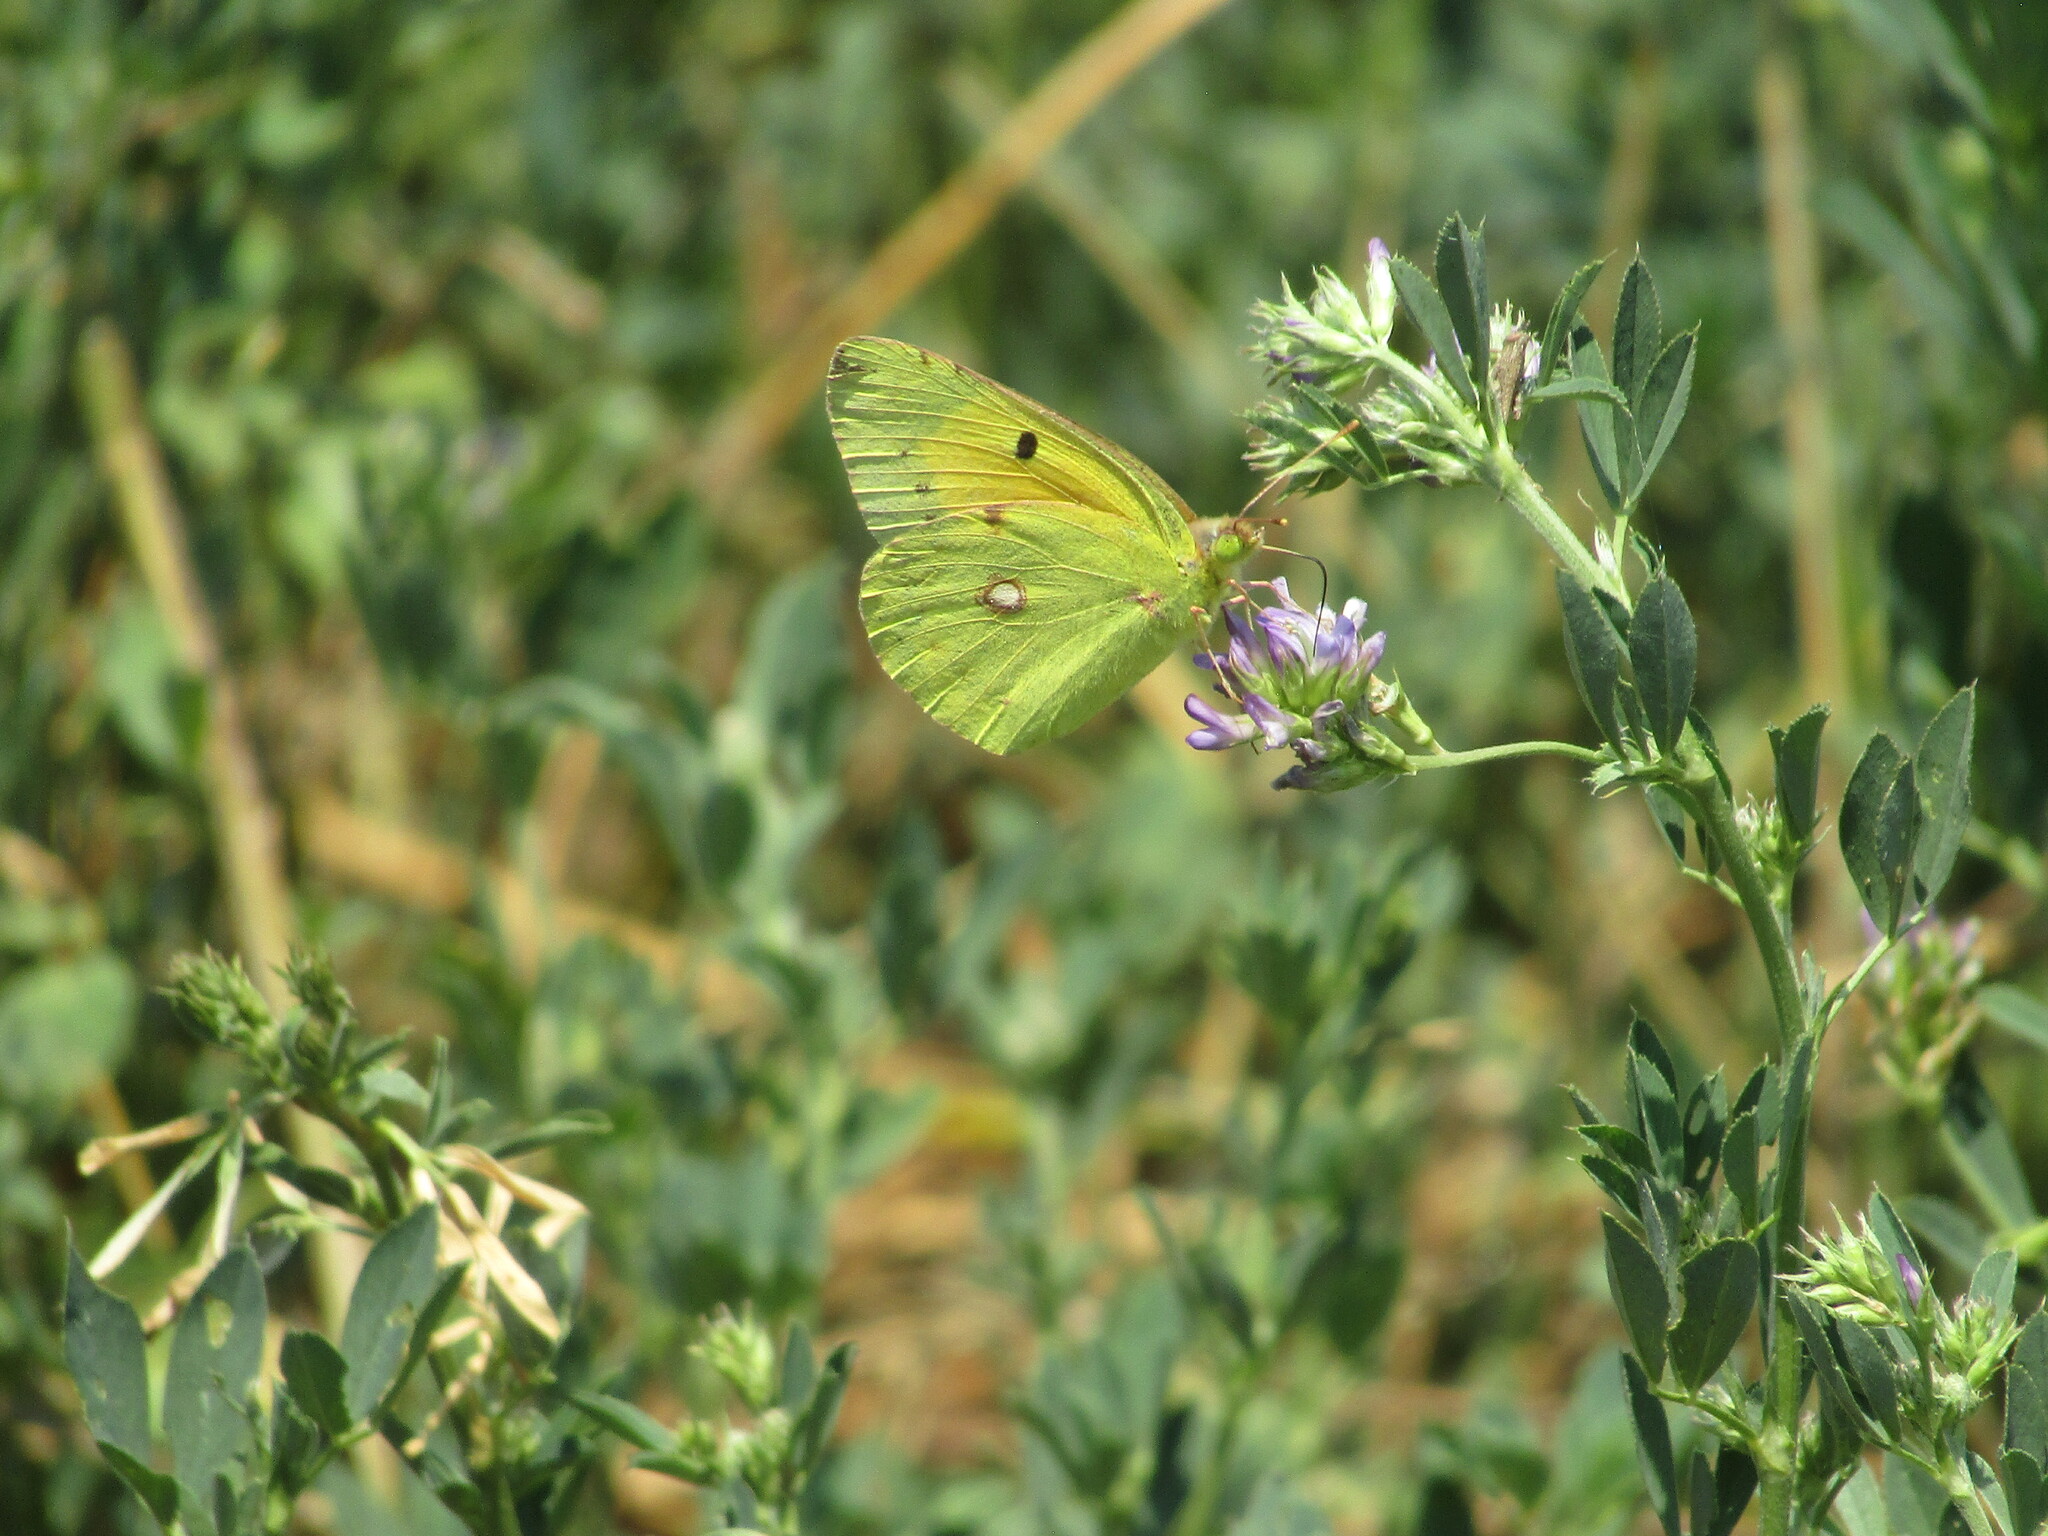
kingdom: Animalia
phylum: Arthropoda
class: Insecta
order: Lepidoptera
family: Pieridae
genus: Colias
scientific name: Colias croceus
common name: Clouded yellow
